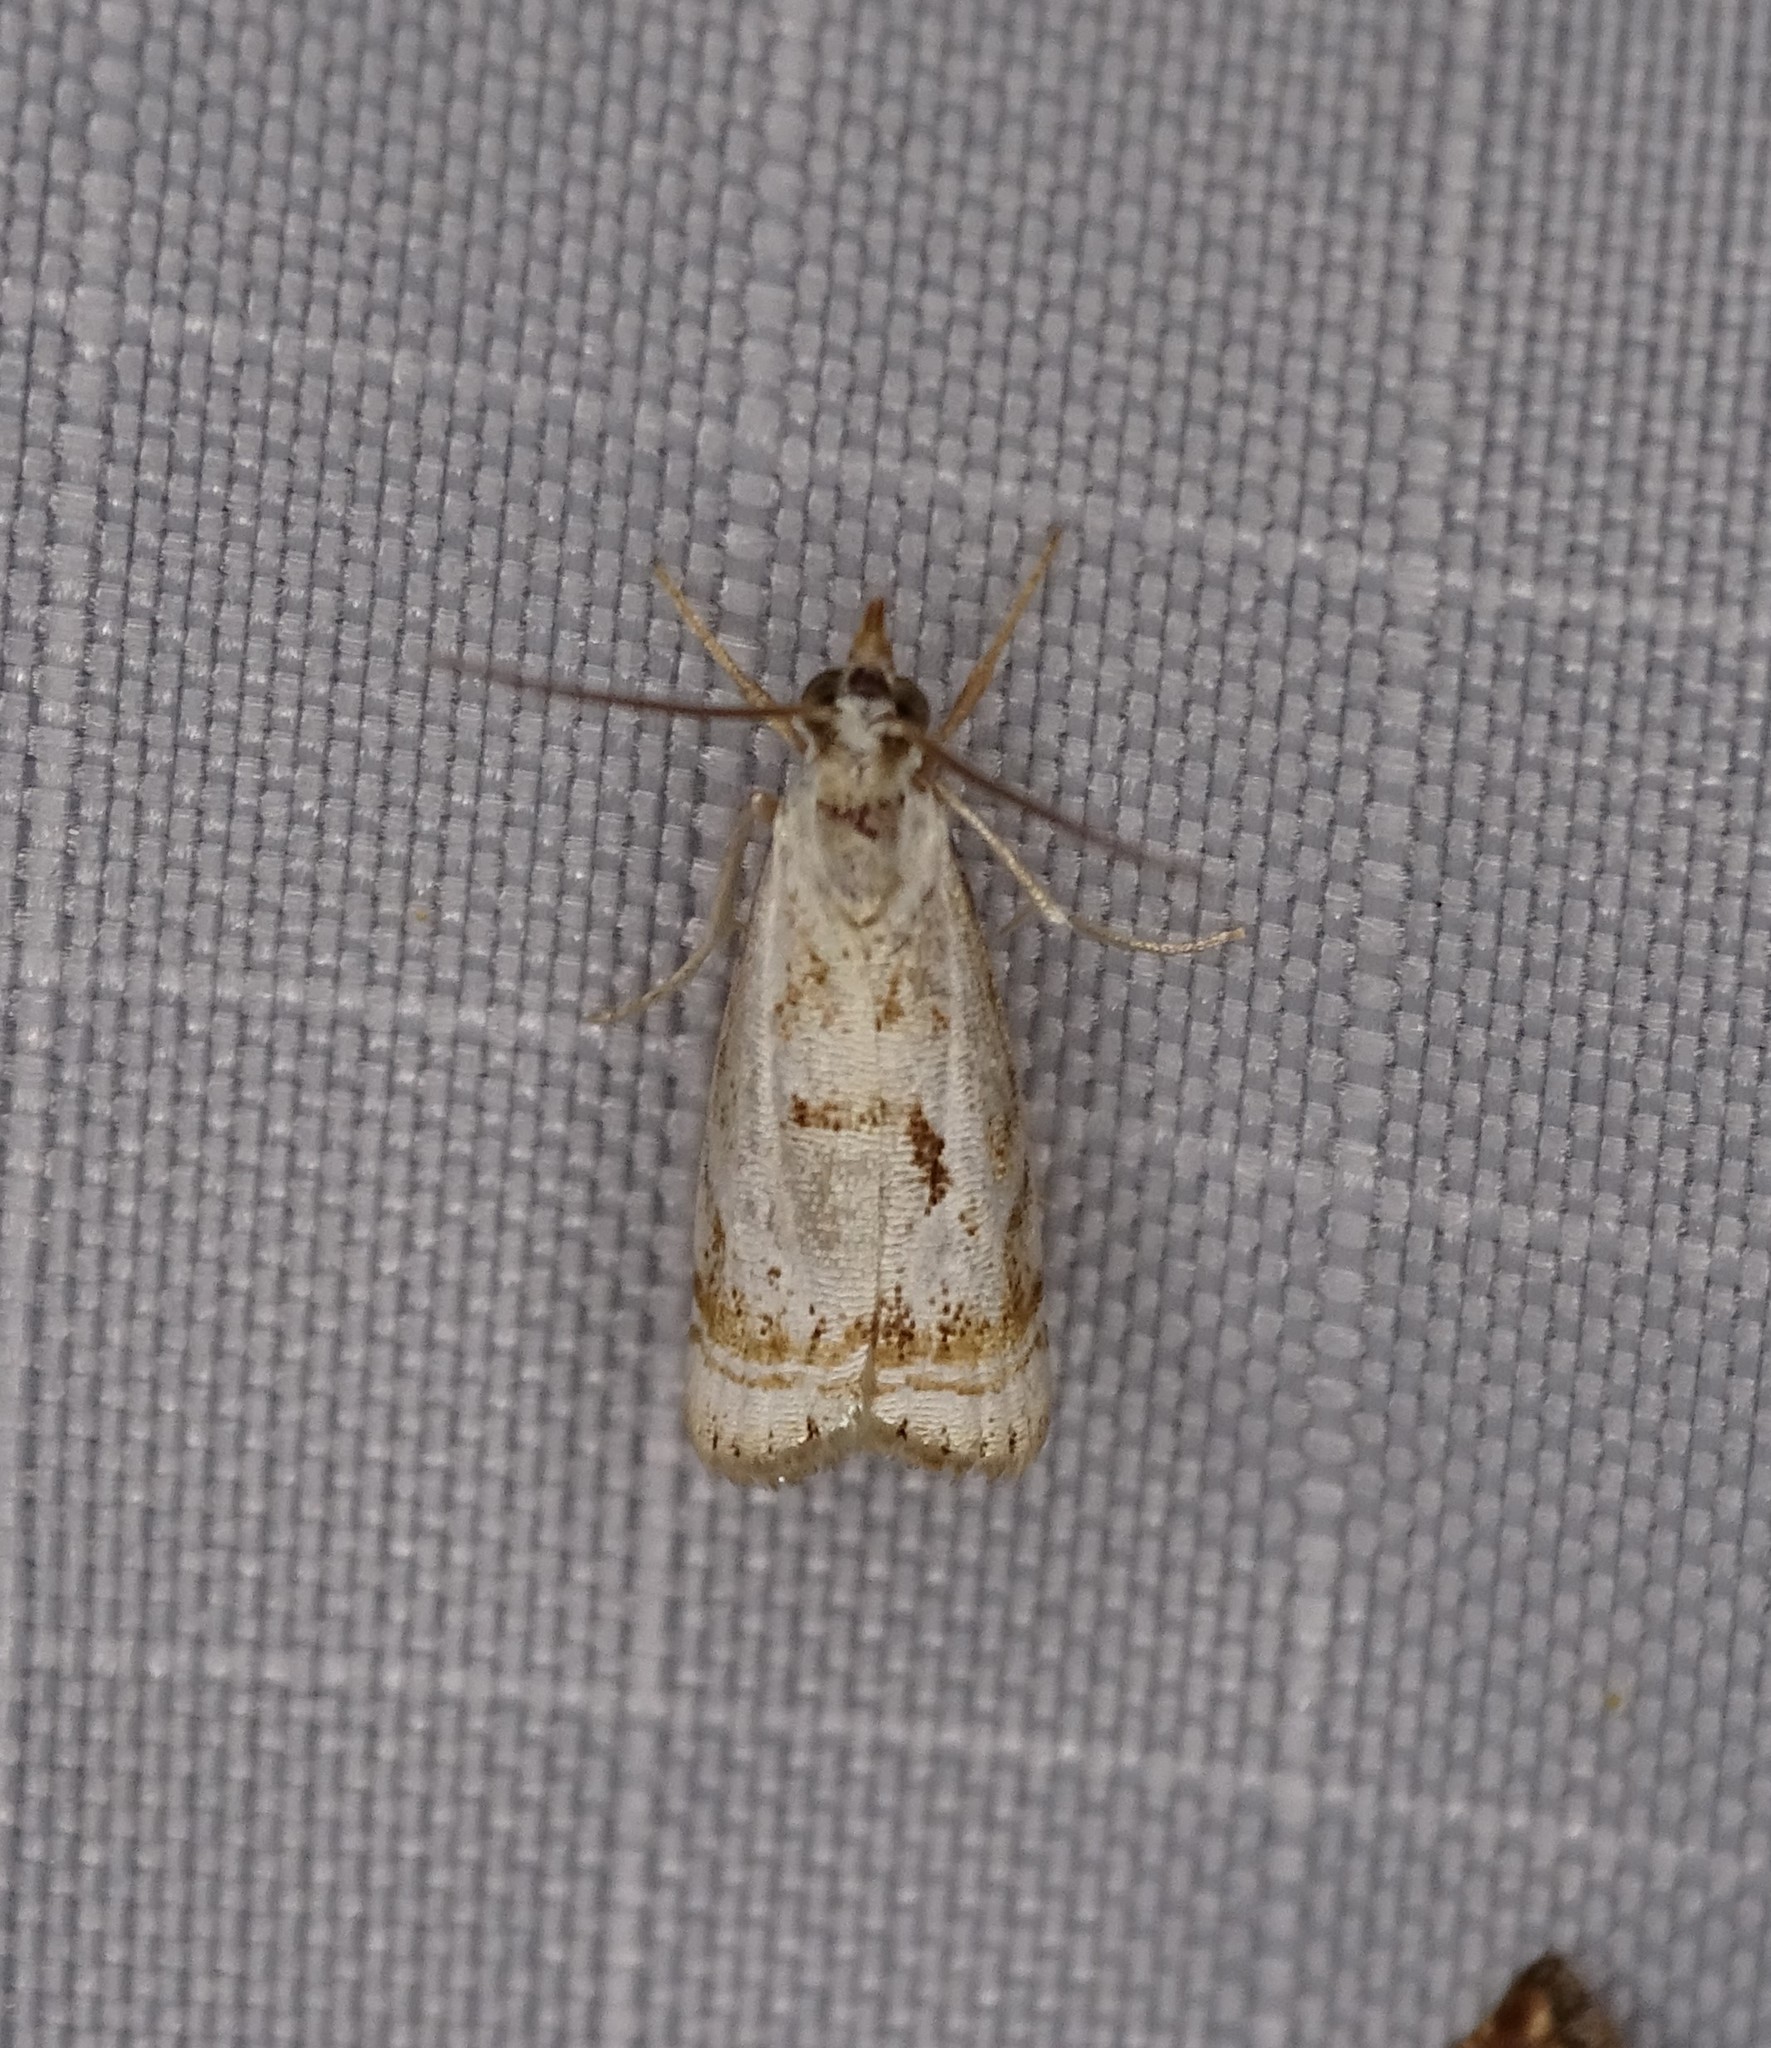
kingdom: Animalia
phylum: Arthropoda
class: Insecta
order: Lepidoptera
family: Crambidae
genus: Microcrambus
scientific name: Microcrambus elegans
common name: Elegant grass-veneer
